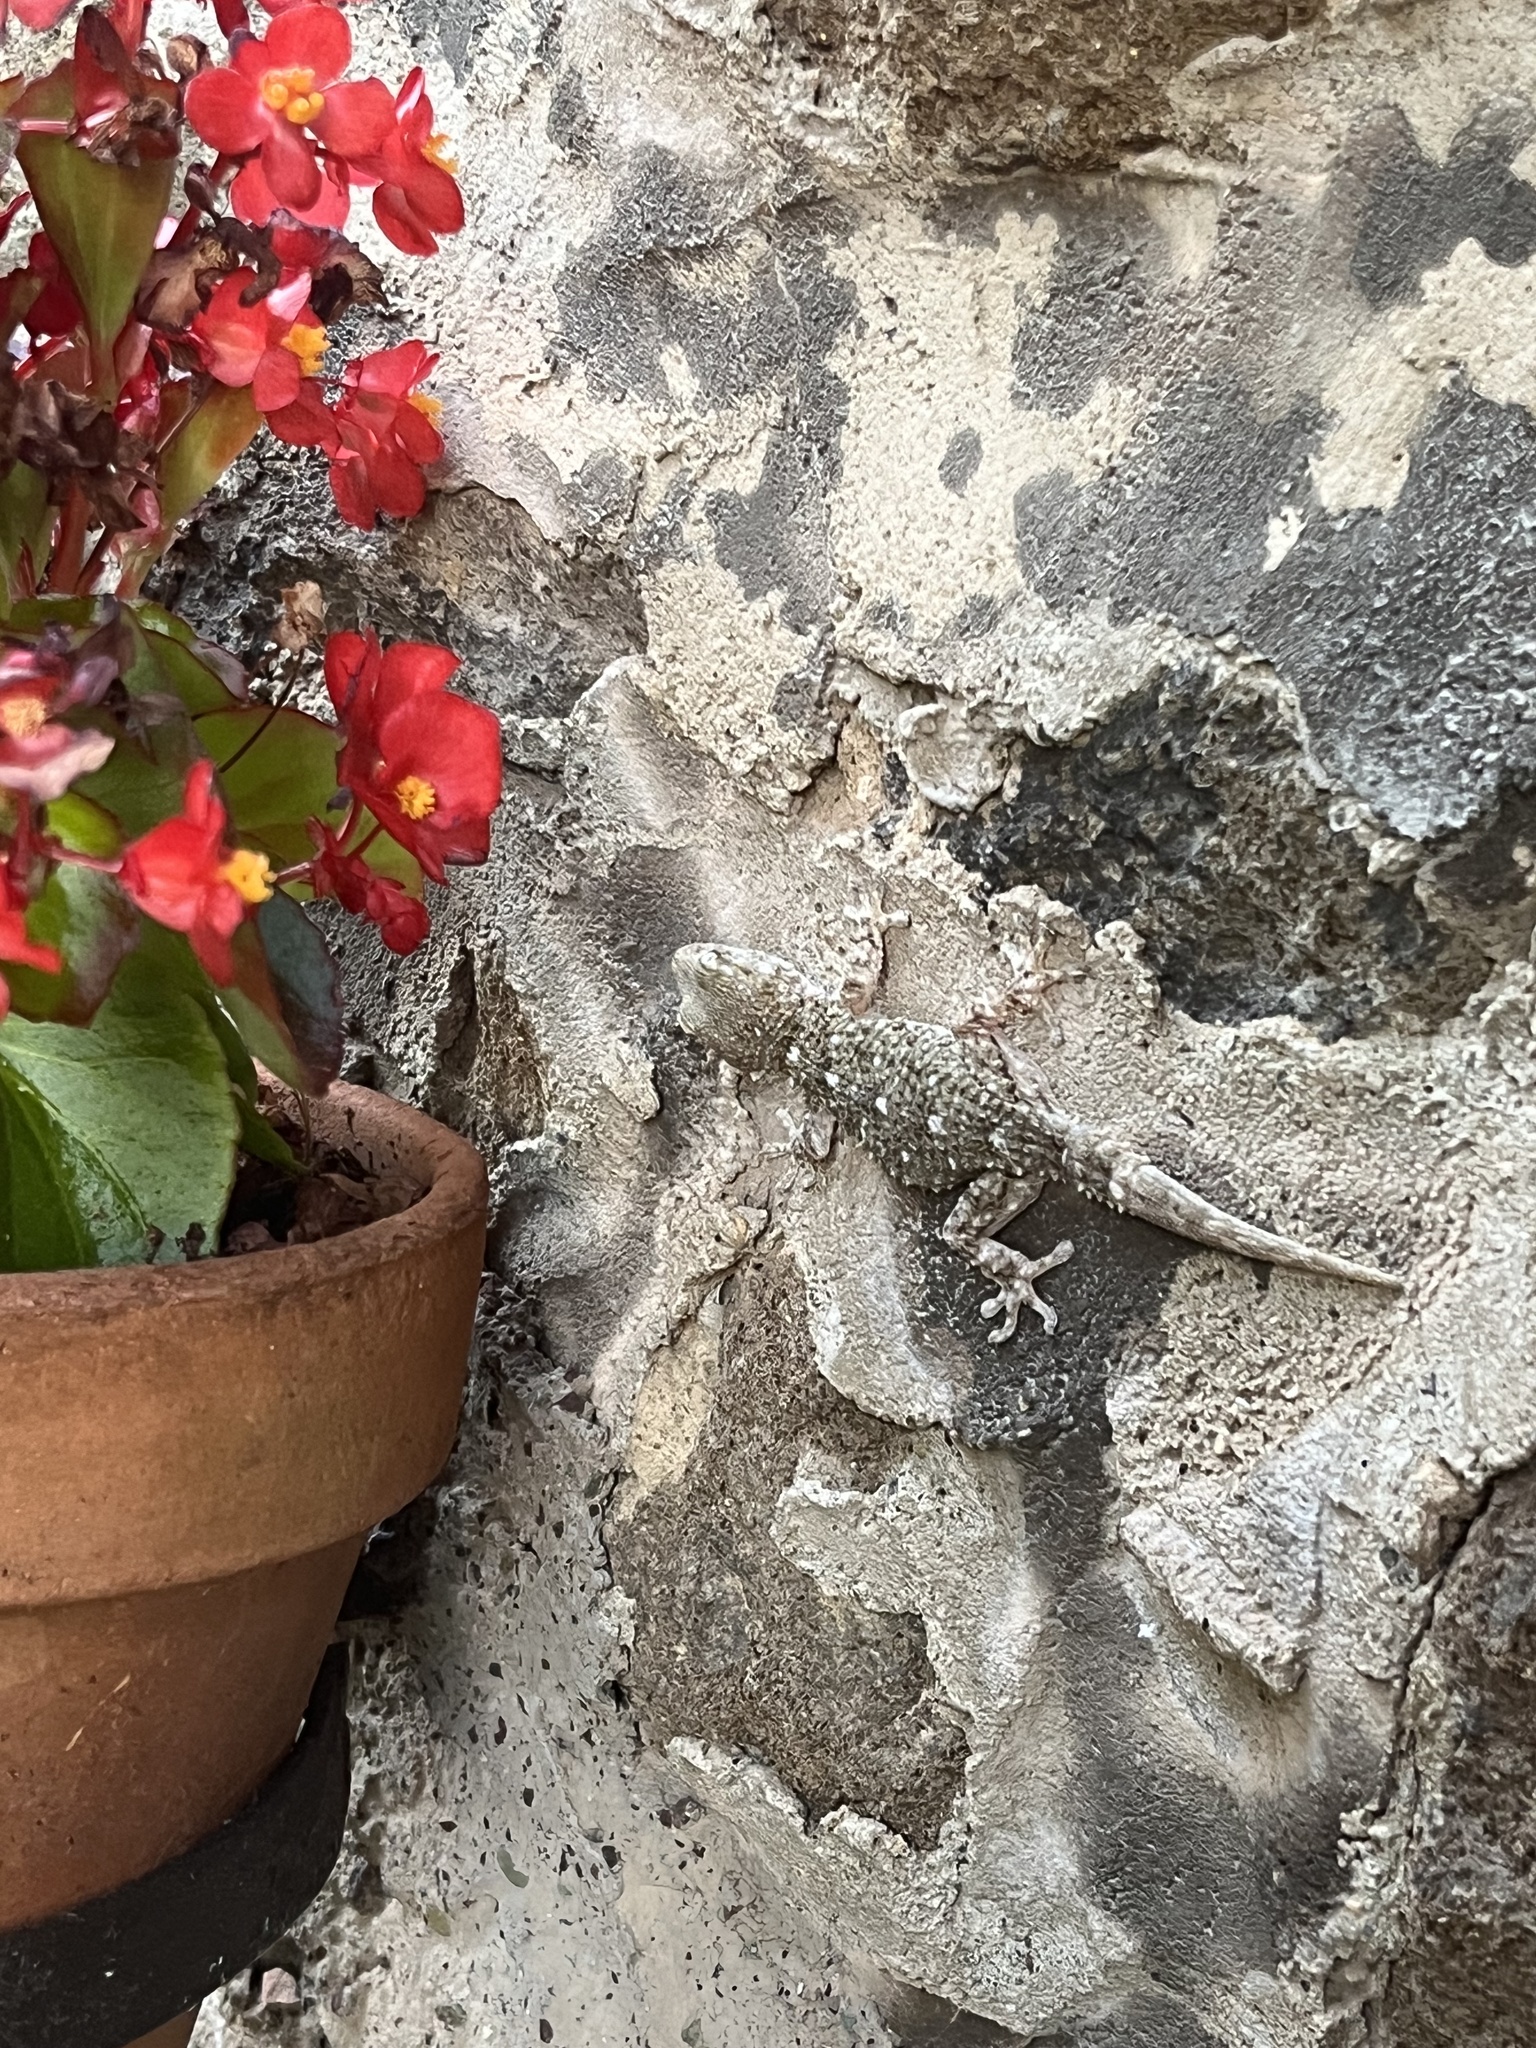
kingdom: Animalia
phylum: Chordata
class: Squamata
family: Phyllodactylidae
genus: Tarentola
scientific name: Tarentola mauritanica
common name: Moorish gecko
